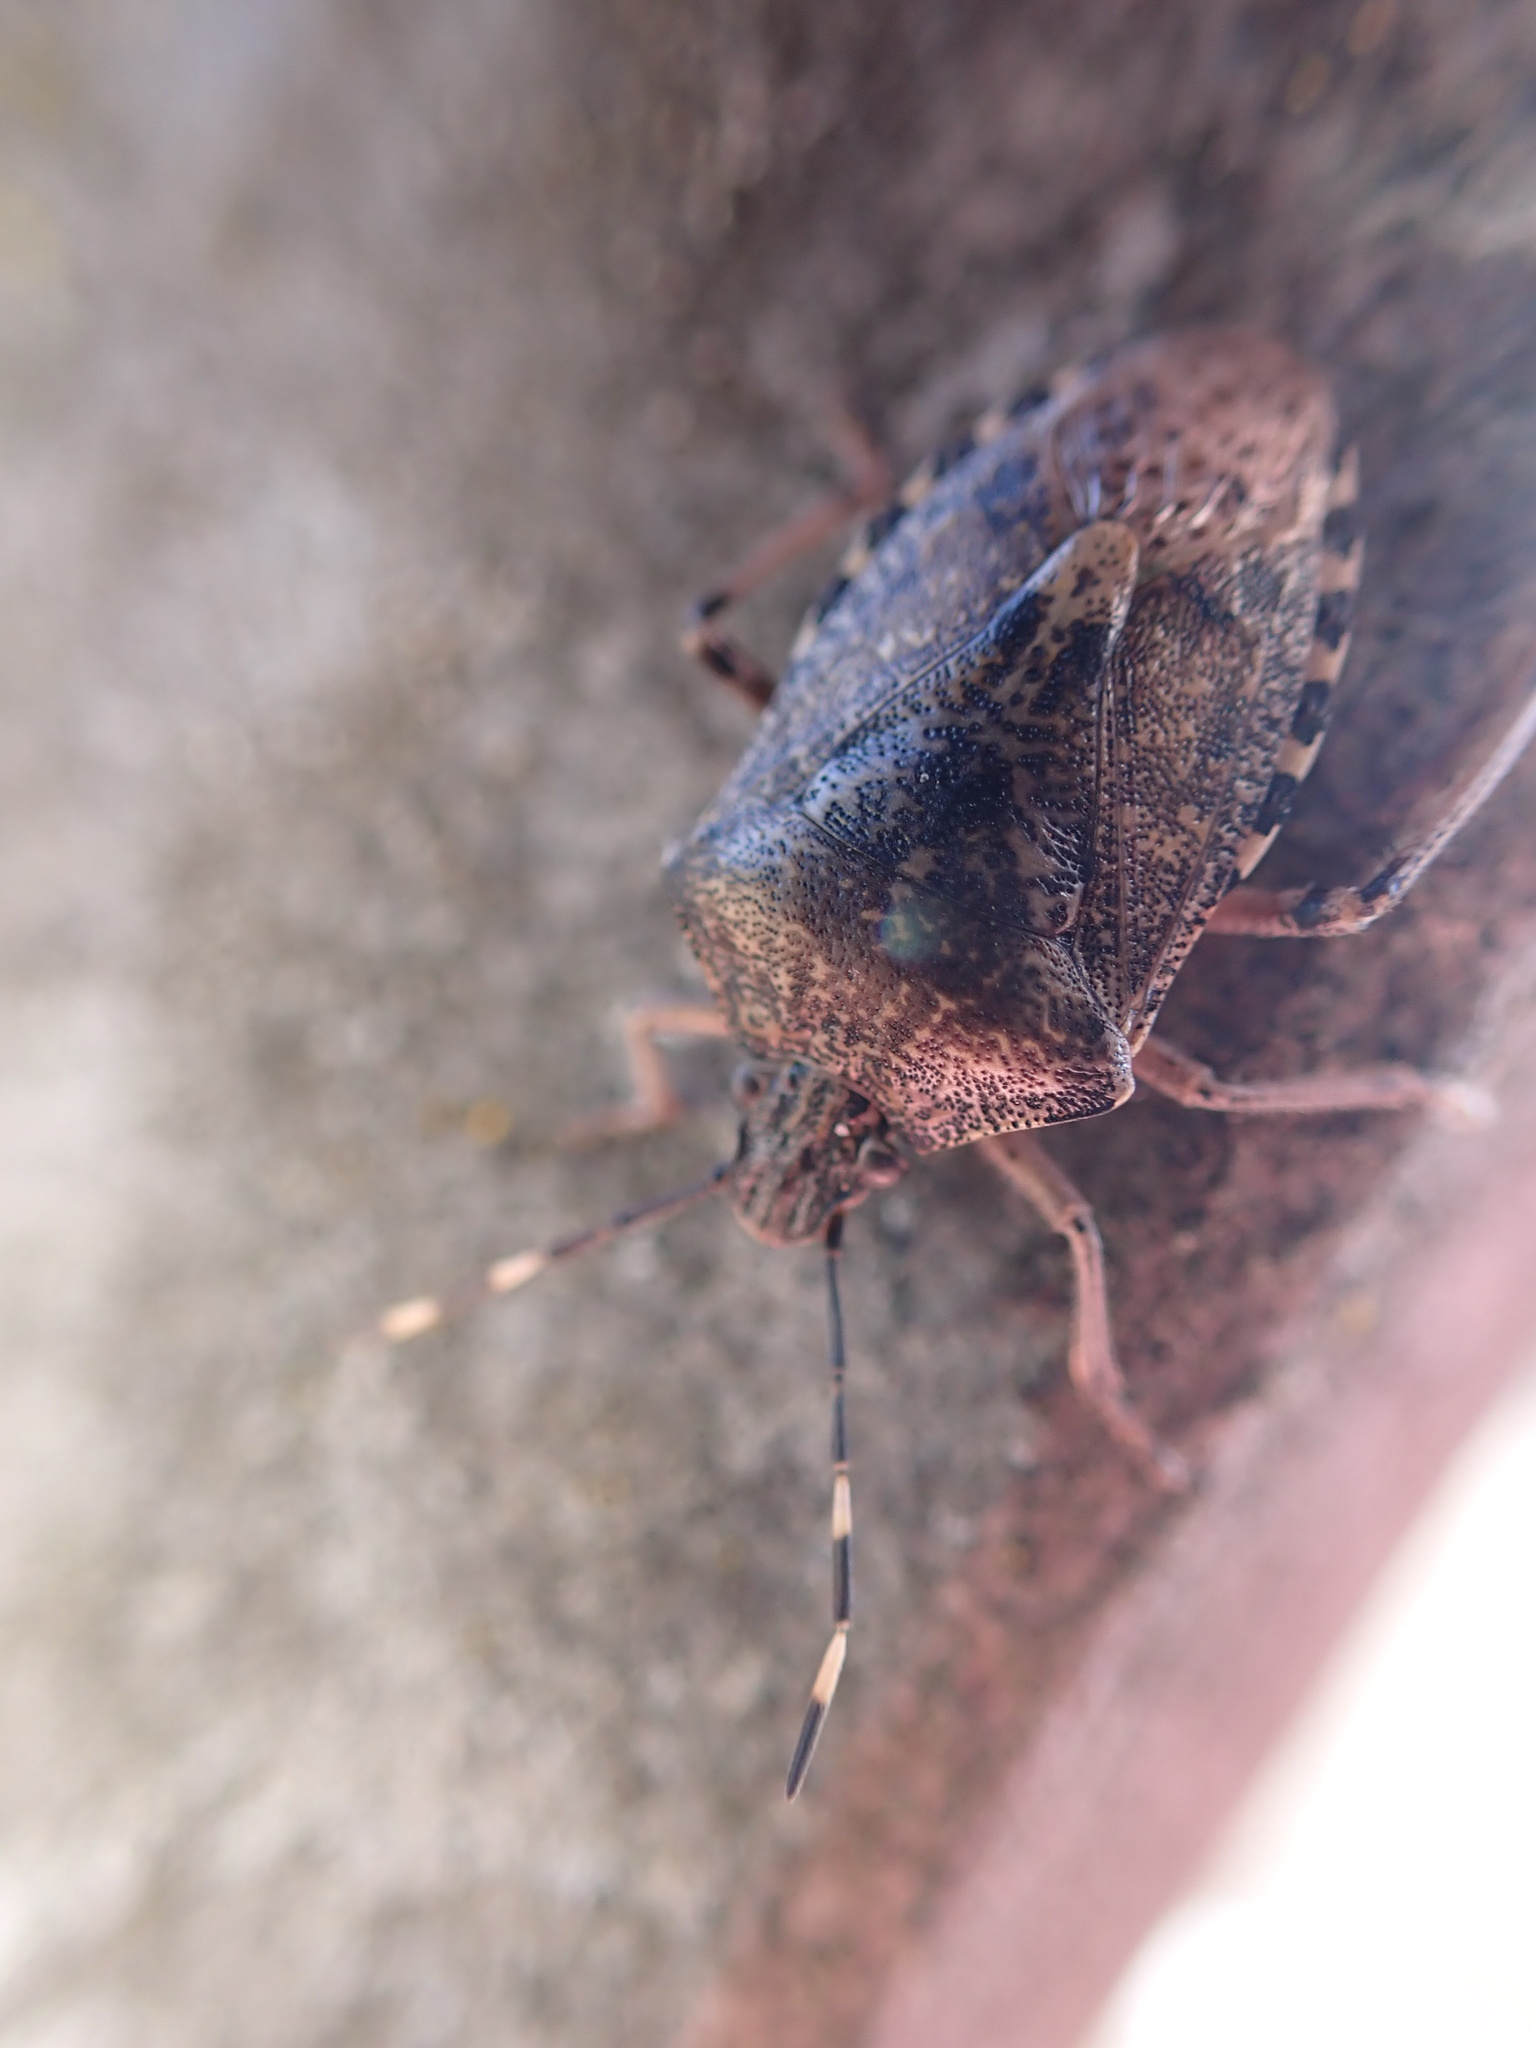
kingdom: Animalia
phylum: Arthropoda
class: Insecta
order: Hemiptera
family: Pentatomidae
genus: Rhaphigaster
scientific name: Rhaphigaster nebulosa
